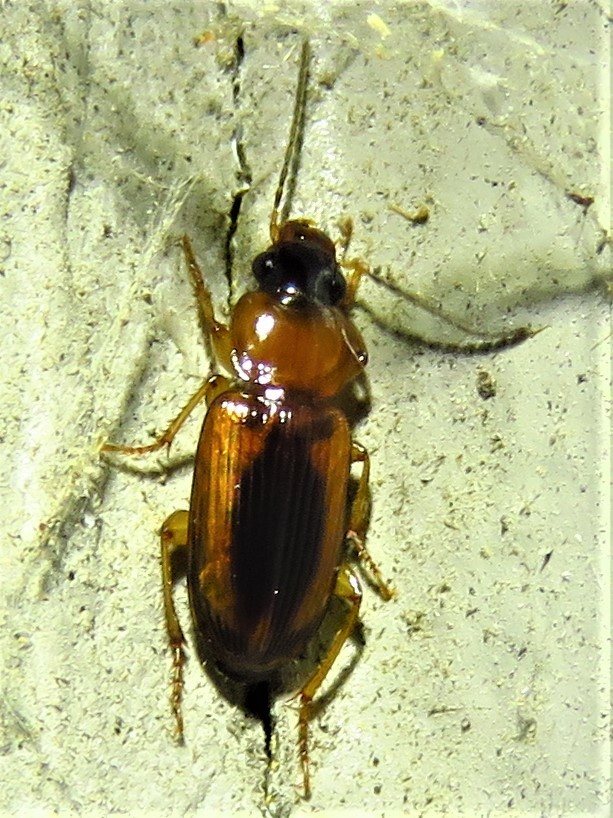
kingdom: Animalia
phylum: Arthropoda
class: Insecta
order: Coleoptera
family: Carabidae
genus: Stenolophus
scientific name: Stenolophus dissimilis
